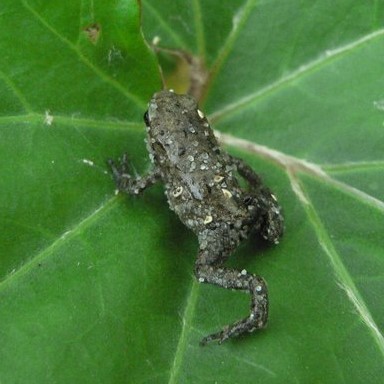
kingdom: Animalia
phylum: Chordata
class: Amphibia
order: Anura
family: Bufonidae
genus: Bufo
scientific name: Bufo bufo
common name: Common toad
